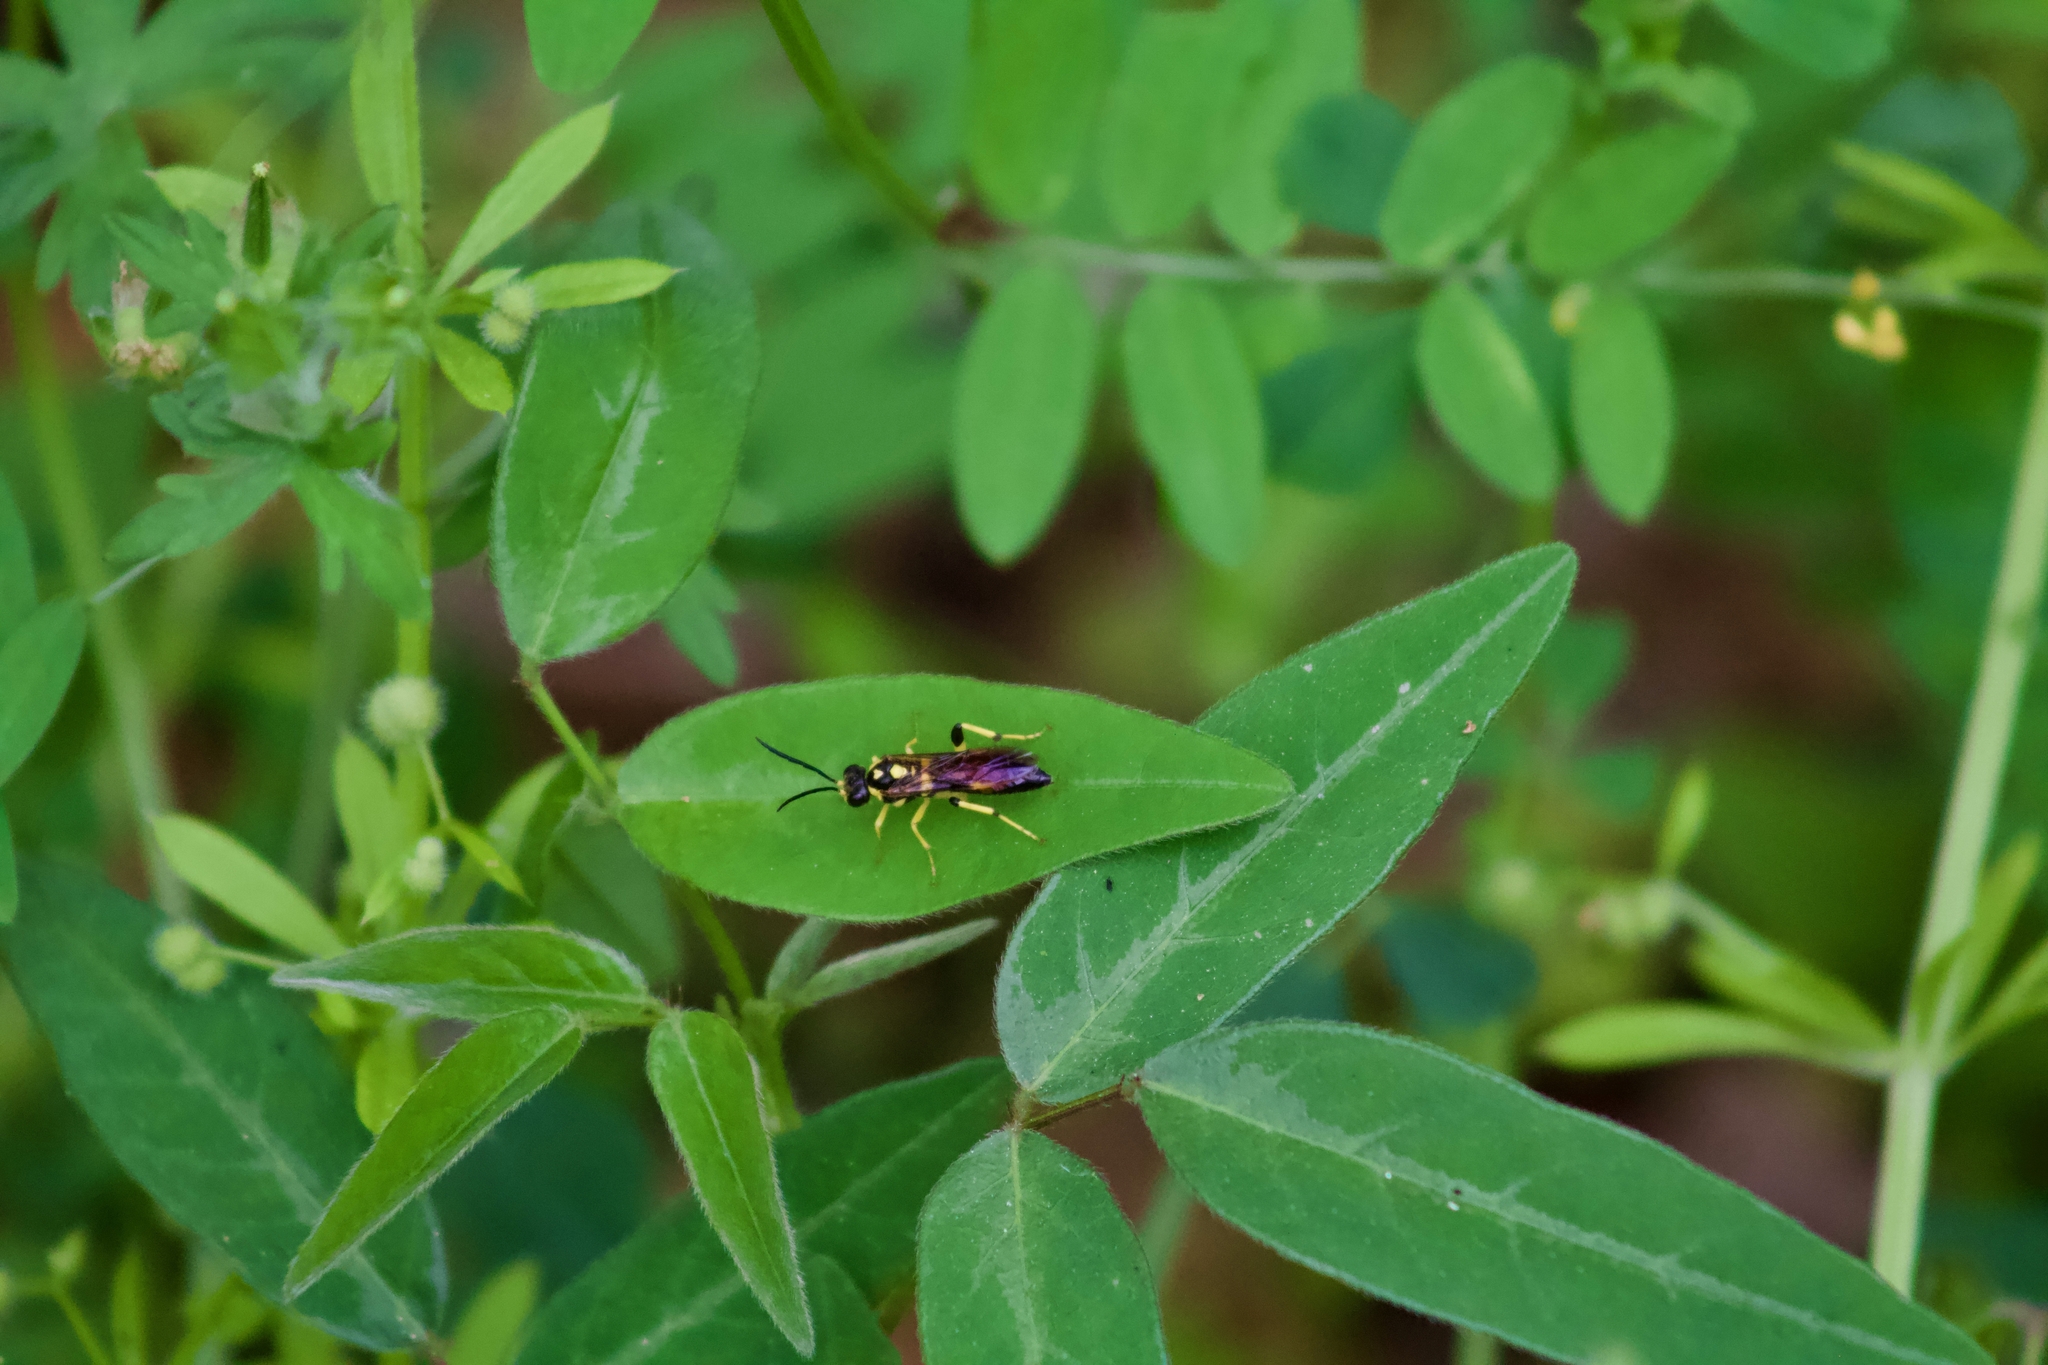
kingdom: Animalia
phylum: Arthropoda
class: Insecta
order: Hymenoptera
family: Tenthredinidae
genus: Macrophya
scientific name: Macrophya formosa
